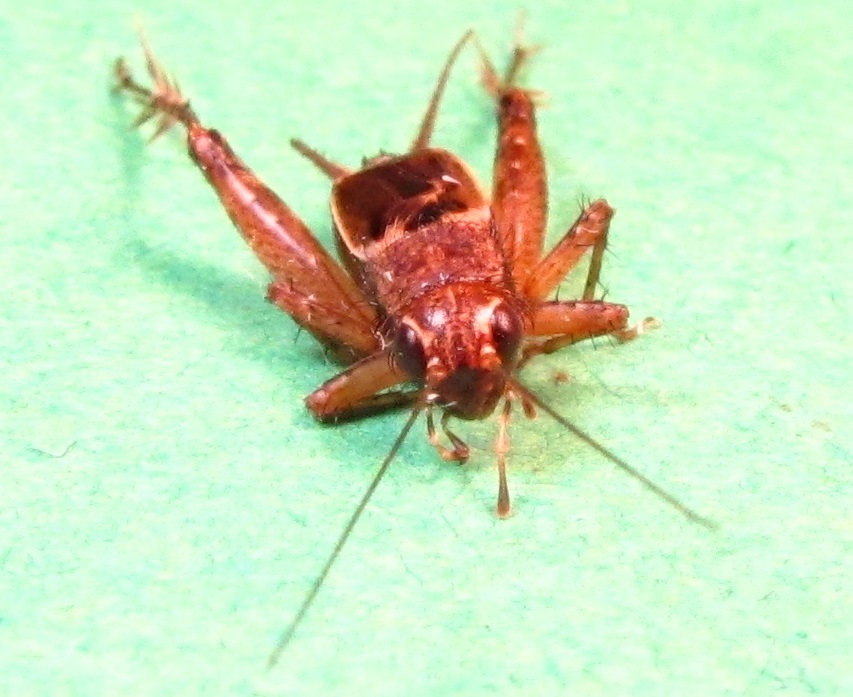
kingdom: Animalia
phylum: Arthropoda
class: Insecta
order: Orthoptera
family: Trigonidiidae
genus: Allonemobius
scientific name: Allonemobius maculatus
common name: Larger spotted ground cricket
